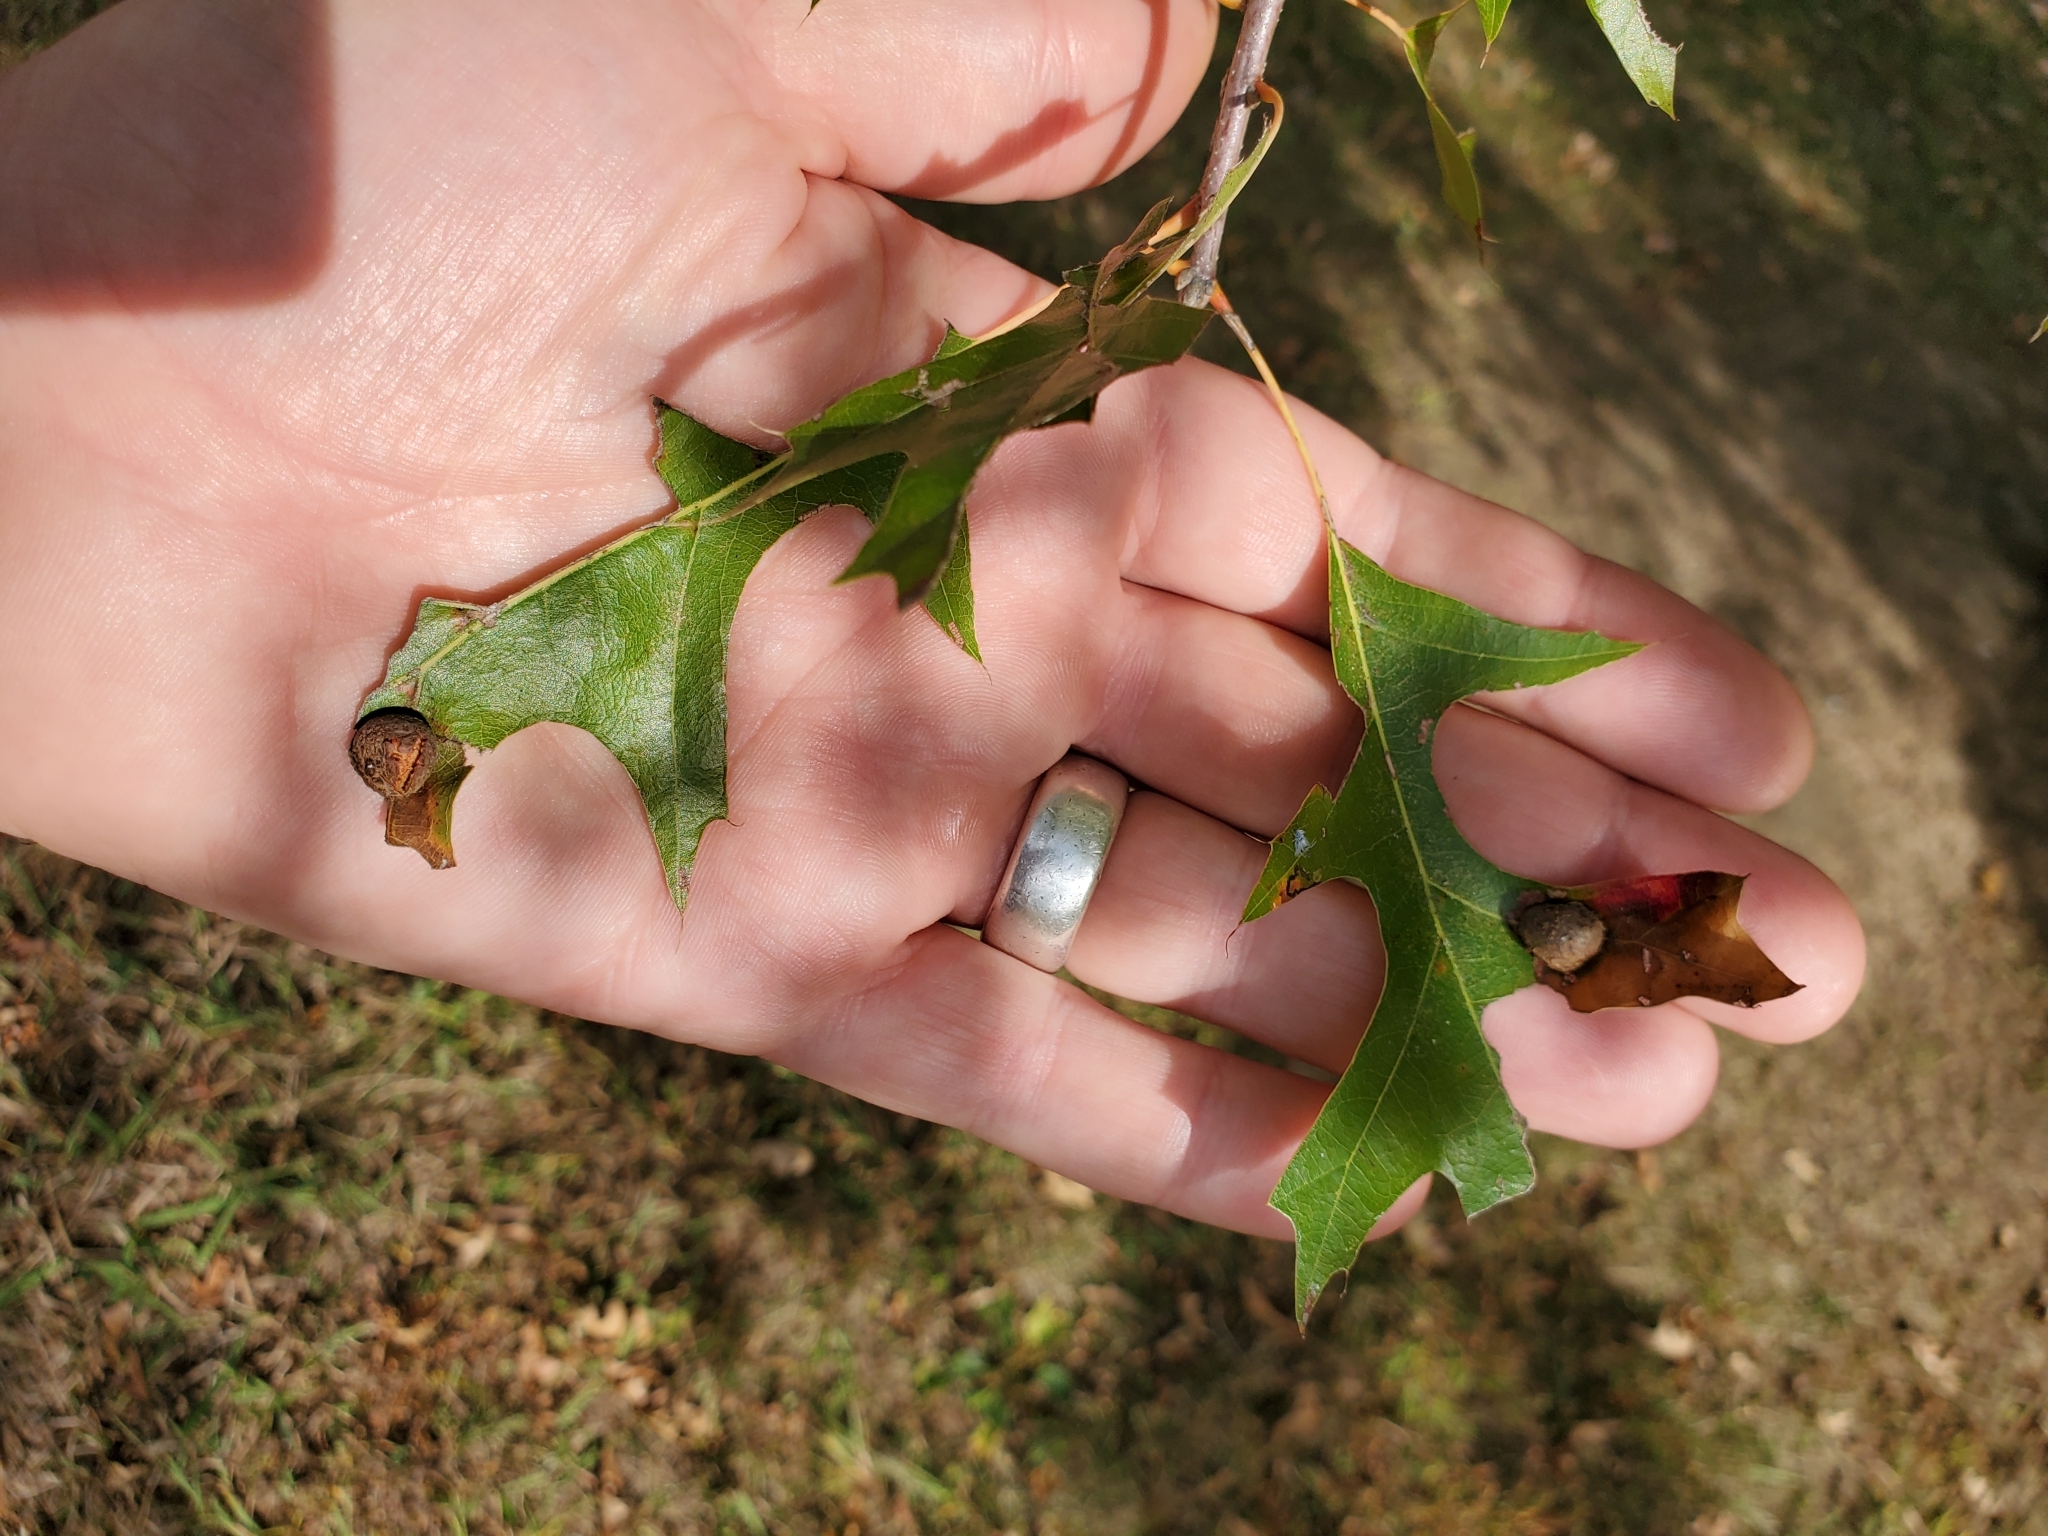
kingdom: Animalia
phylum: Arthropoda
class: Insecta
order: Diptera
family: Cecidomyiidae
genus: Polystepha
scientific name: Polystepha pilulae
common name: Oak leaf gall midge
